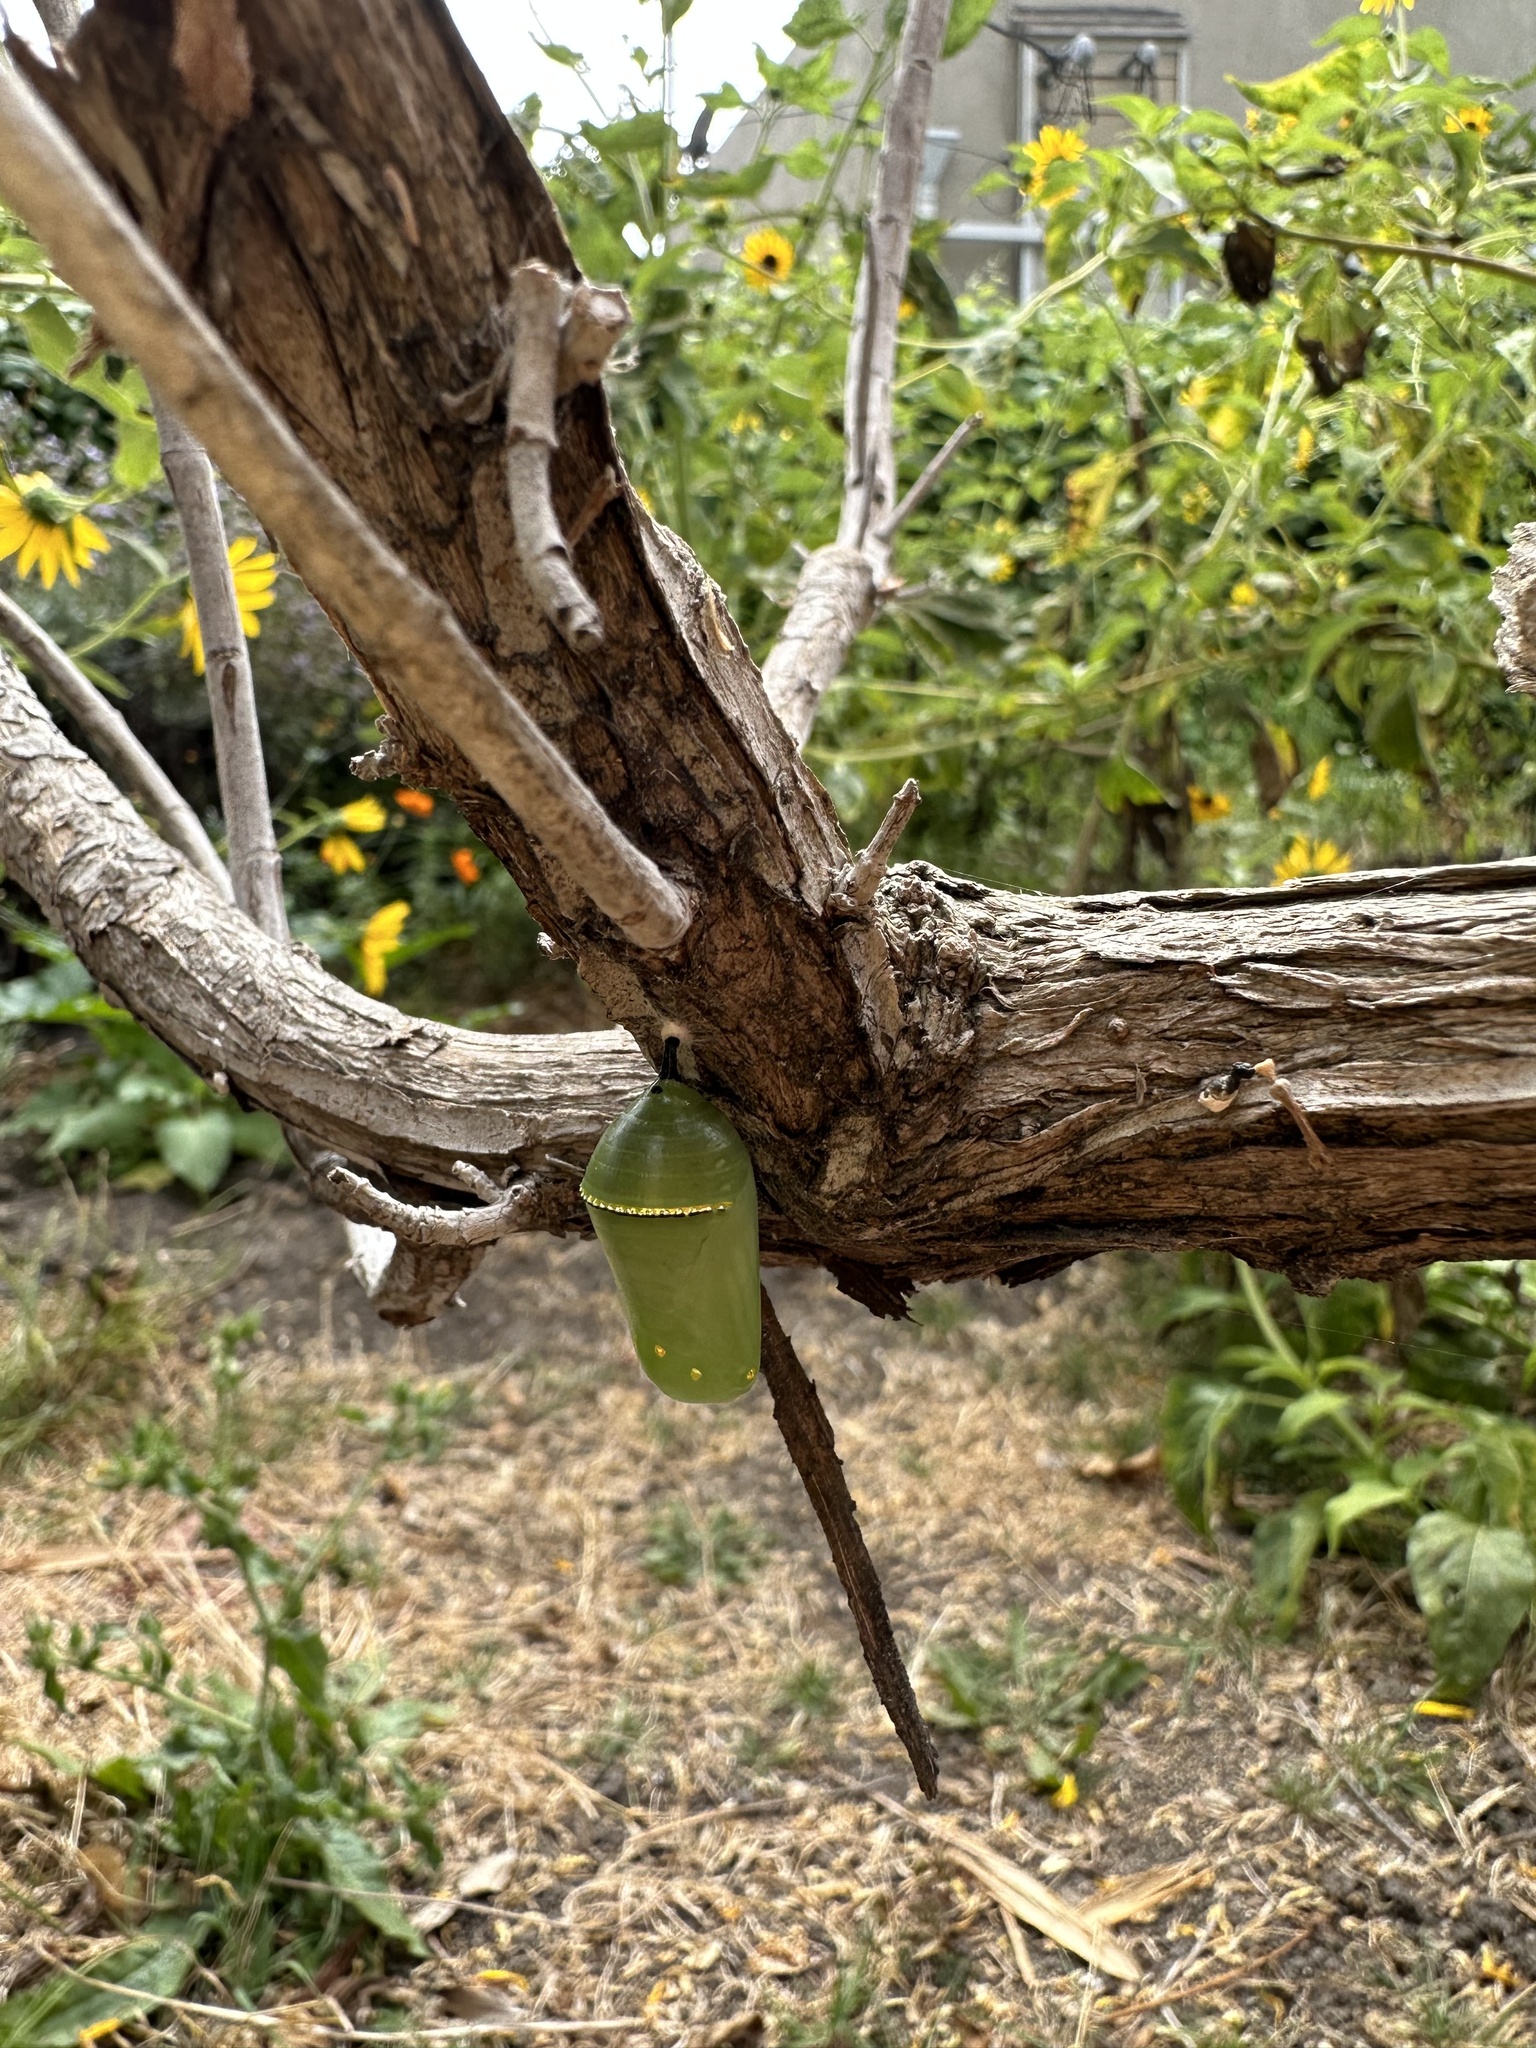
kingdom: Animalia
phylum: Arthropoda
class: Insecta
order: Lepidoptera
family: Nymphalidae
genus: Danaus
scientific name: Danaus plexippus
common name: Monarch
